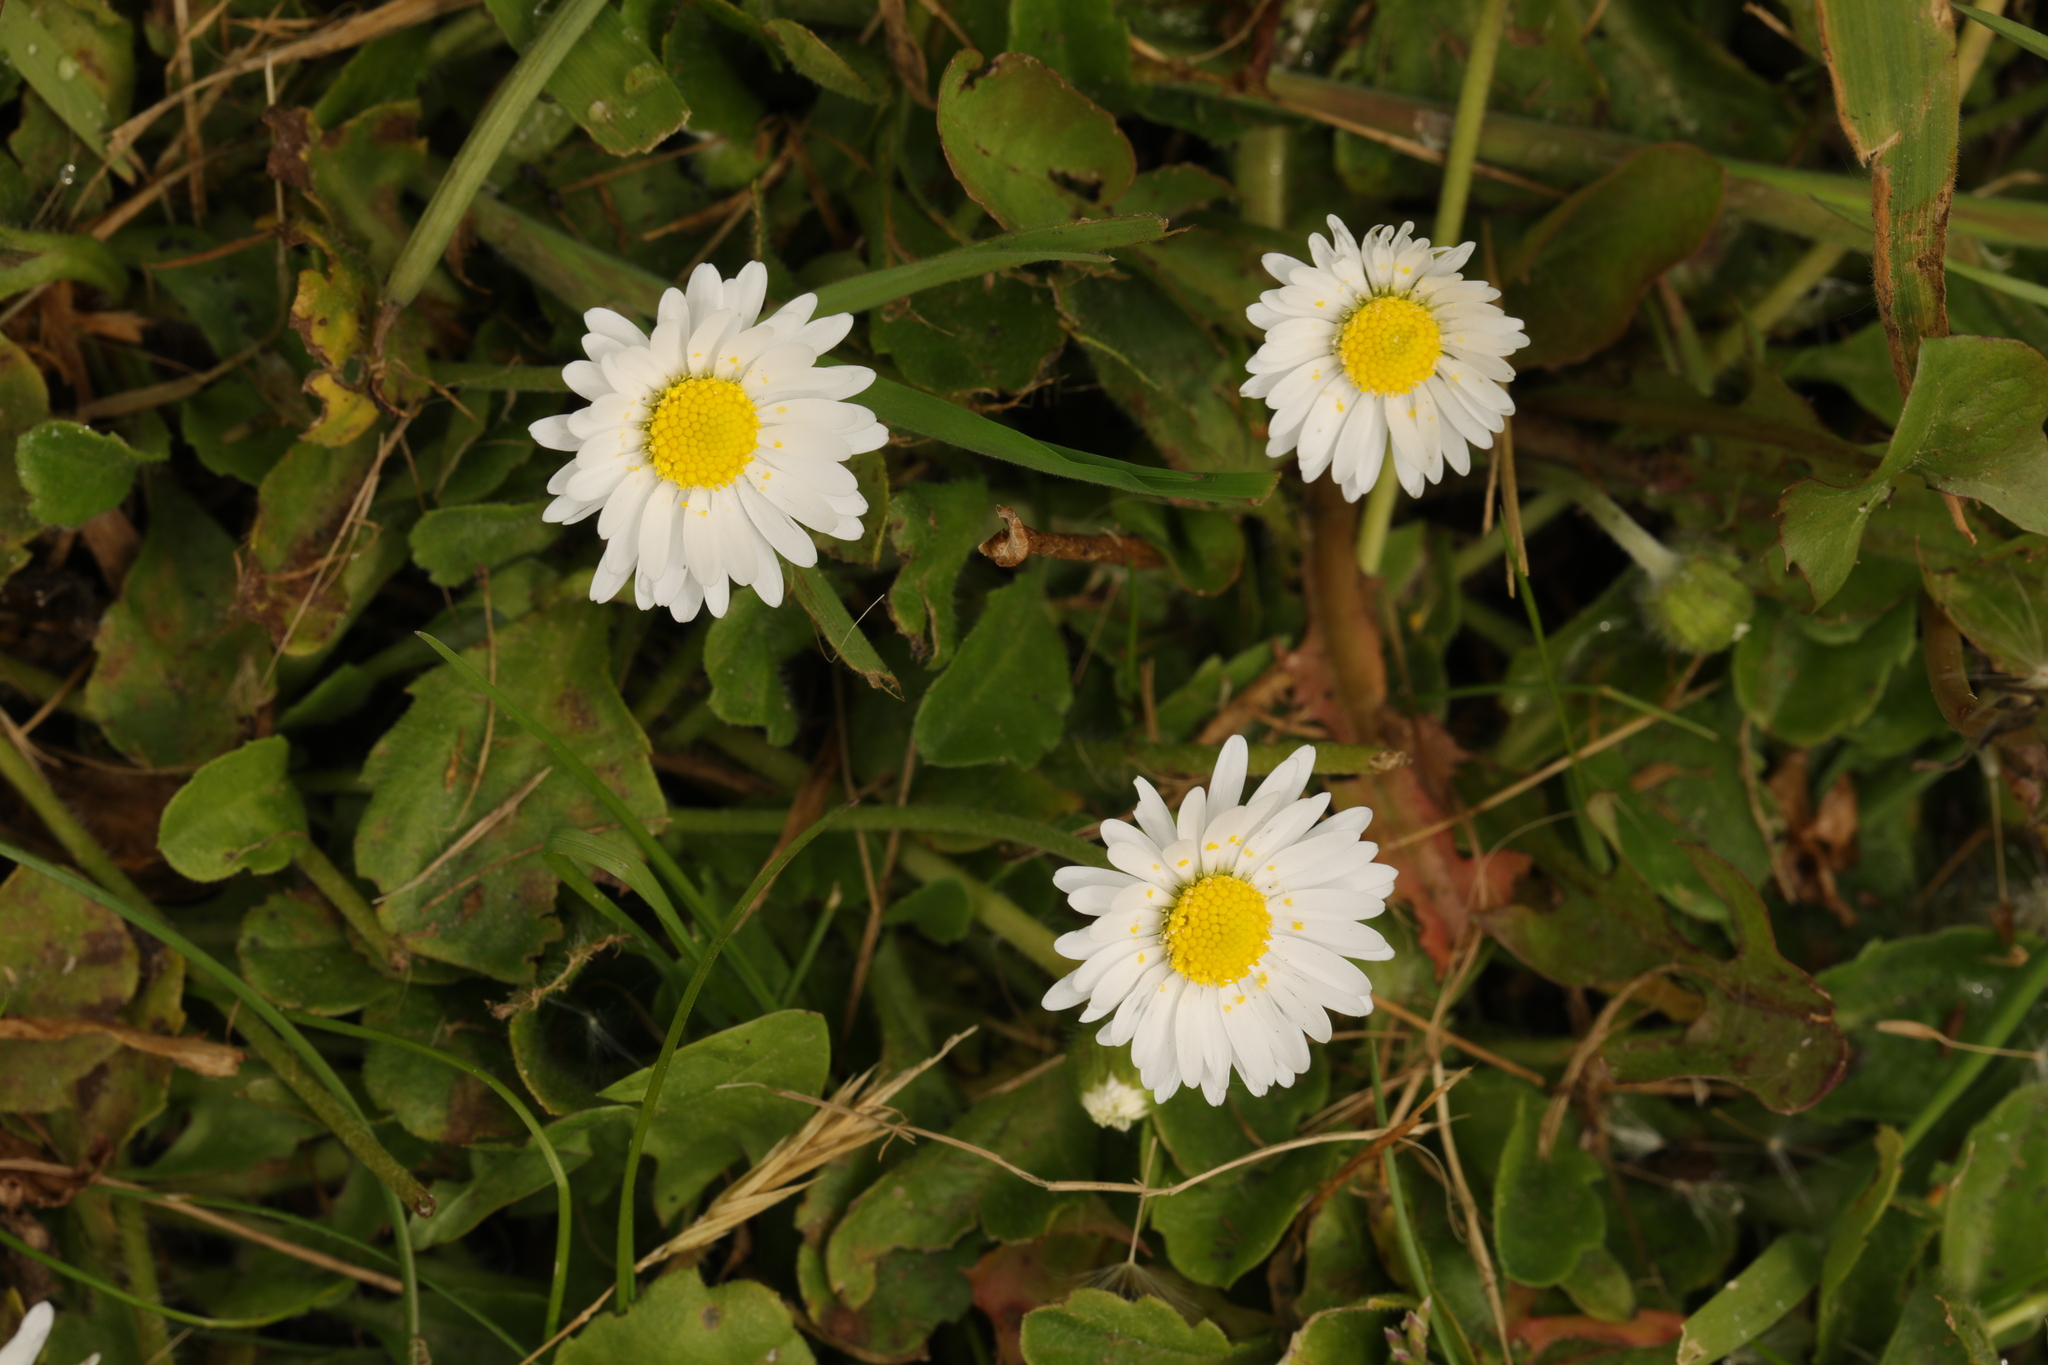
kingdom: Plantae
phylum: Tracheophyta
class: Magnoliopsida
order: Asterales
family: Asteraceae
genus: Bellis
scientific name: Bellis perennis
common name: Lawndaisy
